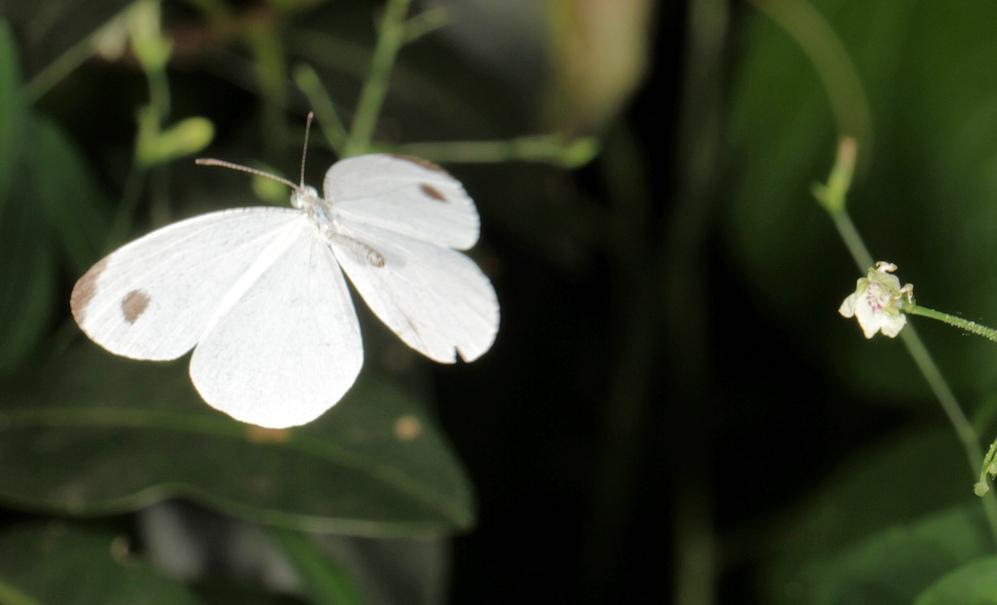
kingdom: Animalia
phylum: Arthropoda
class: Insecta
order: Lepidoptera
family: Pieridae
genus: Leptosia
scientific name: Leptosia alcesta
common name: African wood white
